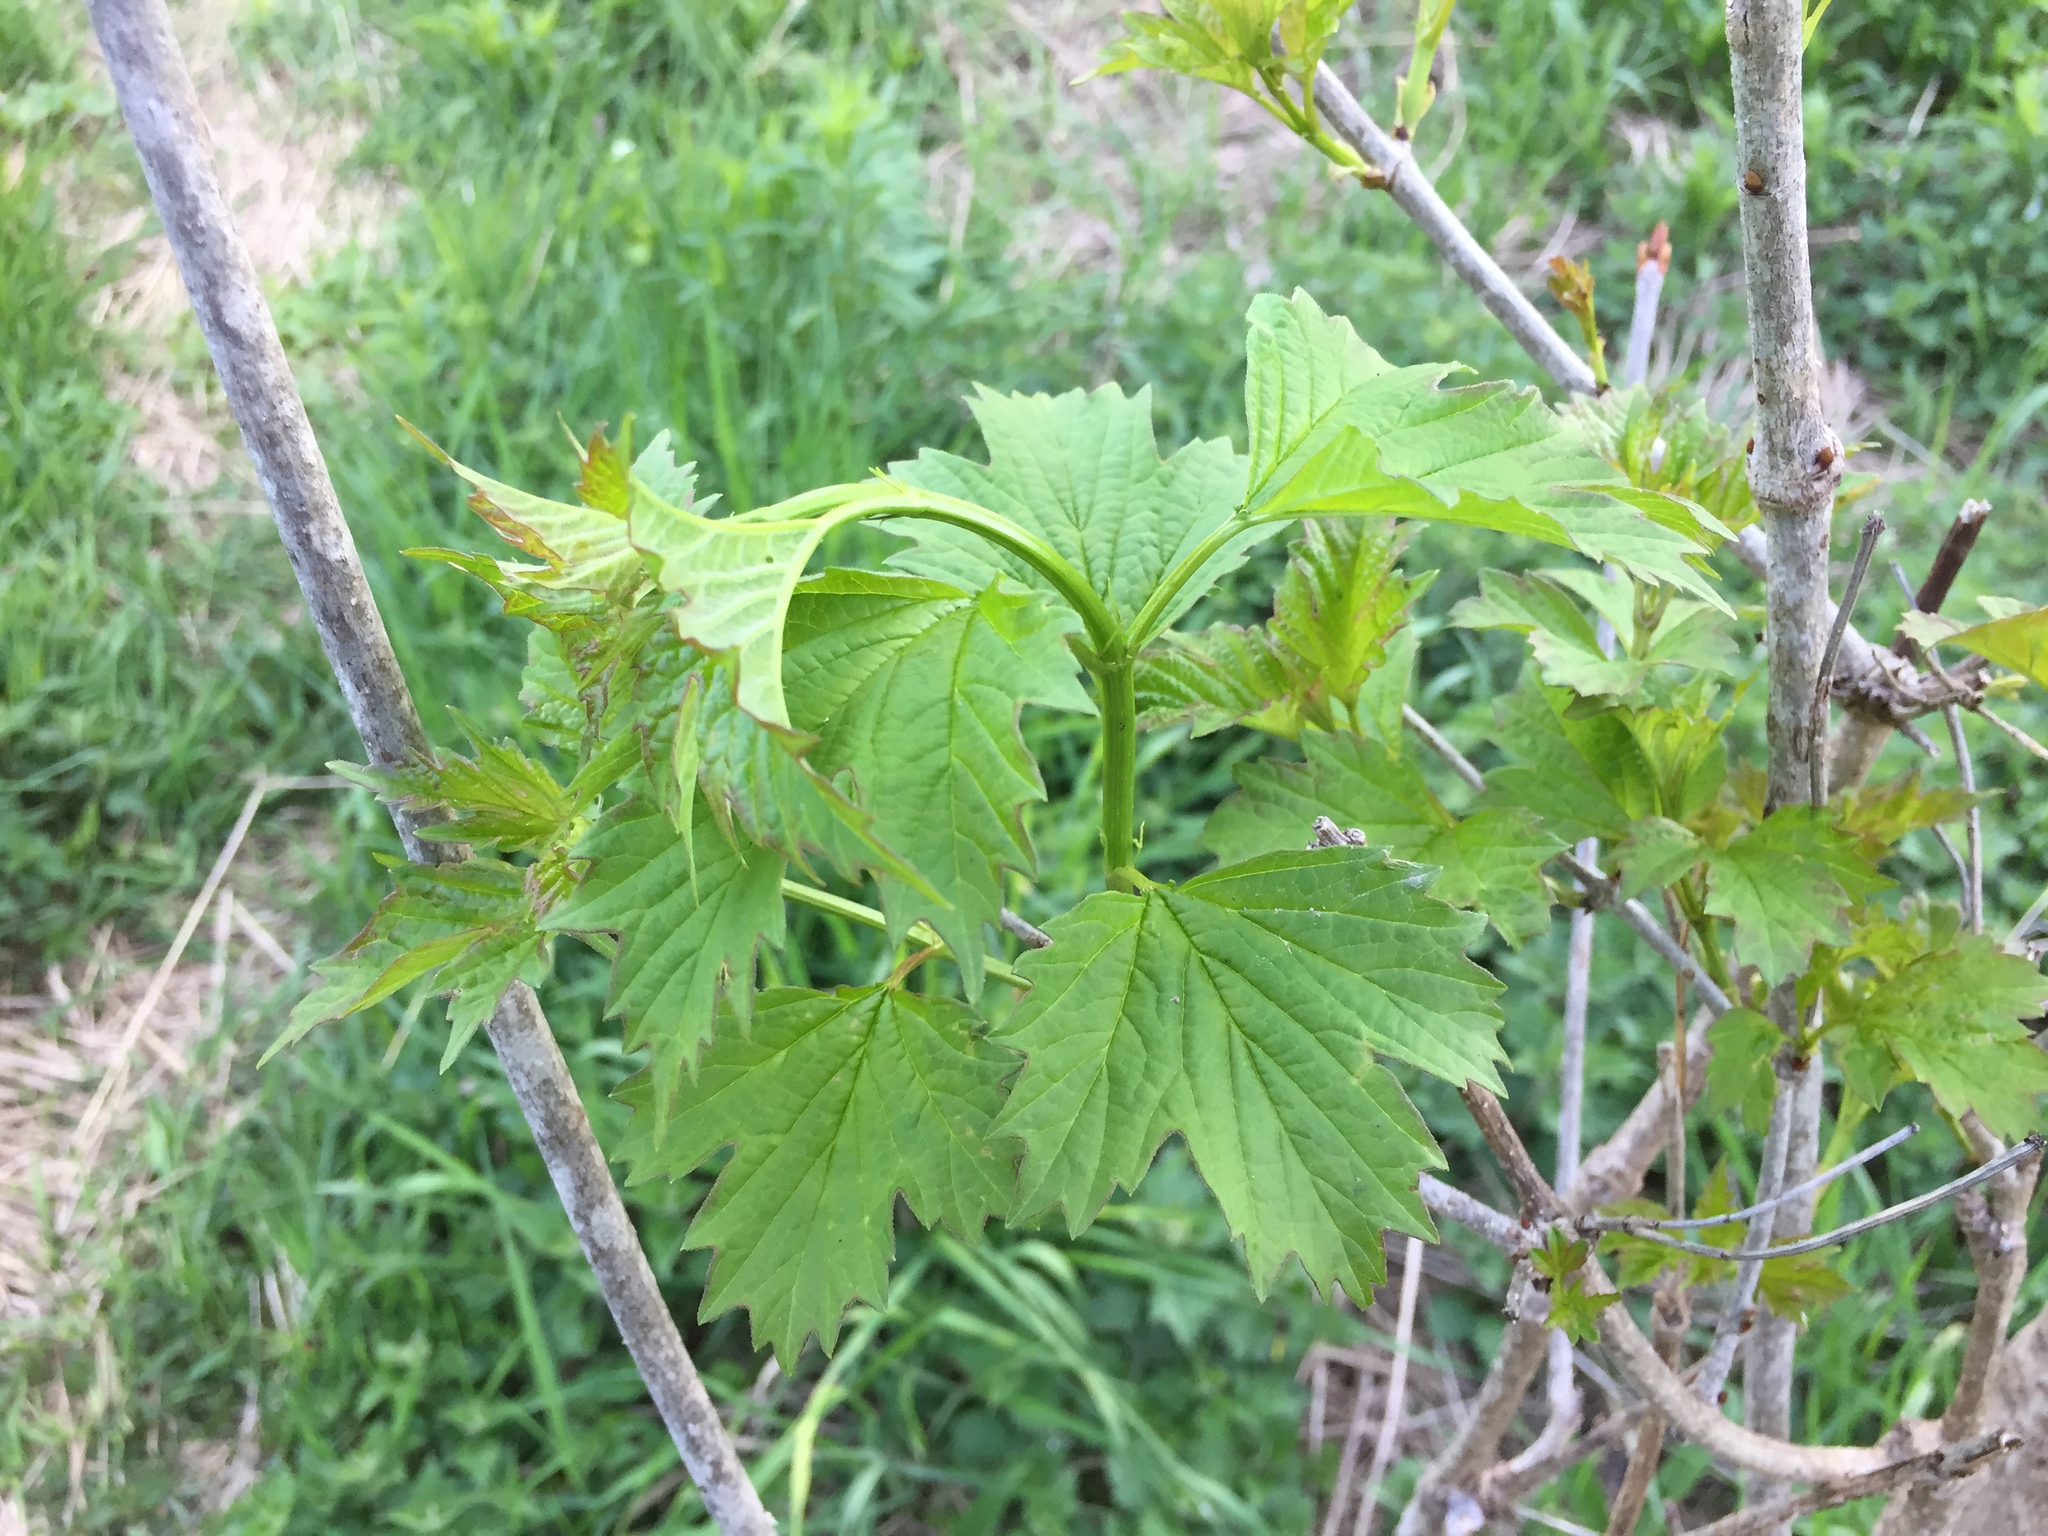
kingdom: Plantae
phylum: Tracheophyta
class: Magnoliopsida
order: Dipsacales
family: Viburnaceae
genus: Viburnum
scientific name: Viburnum opulus
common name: Guelder-rose
